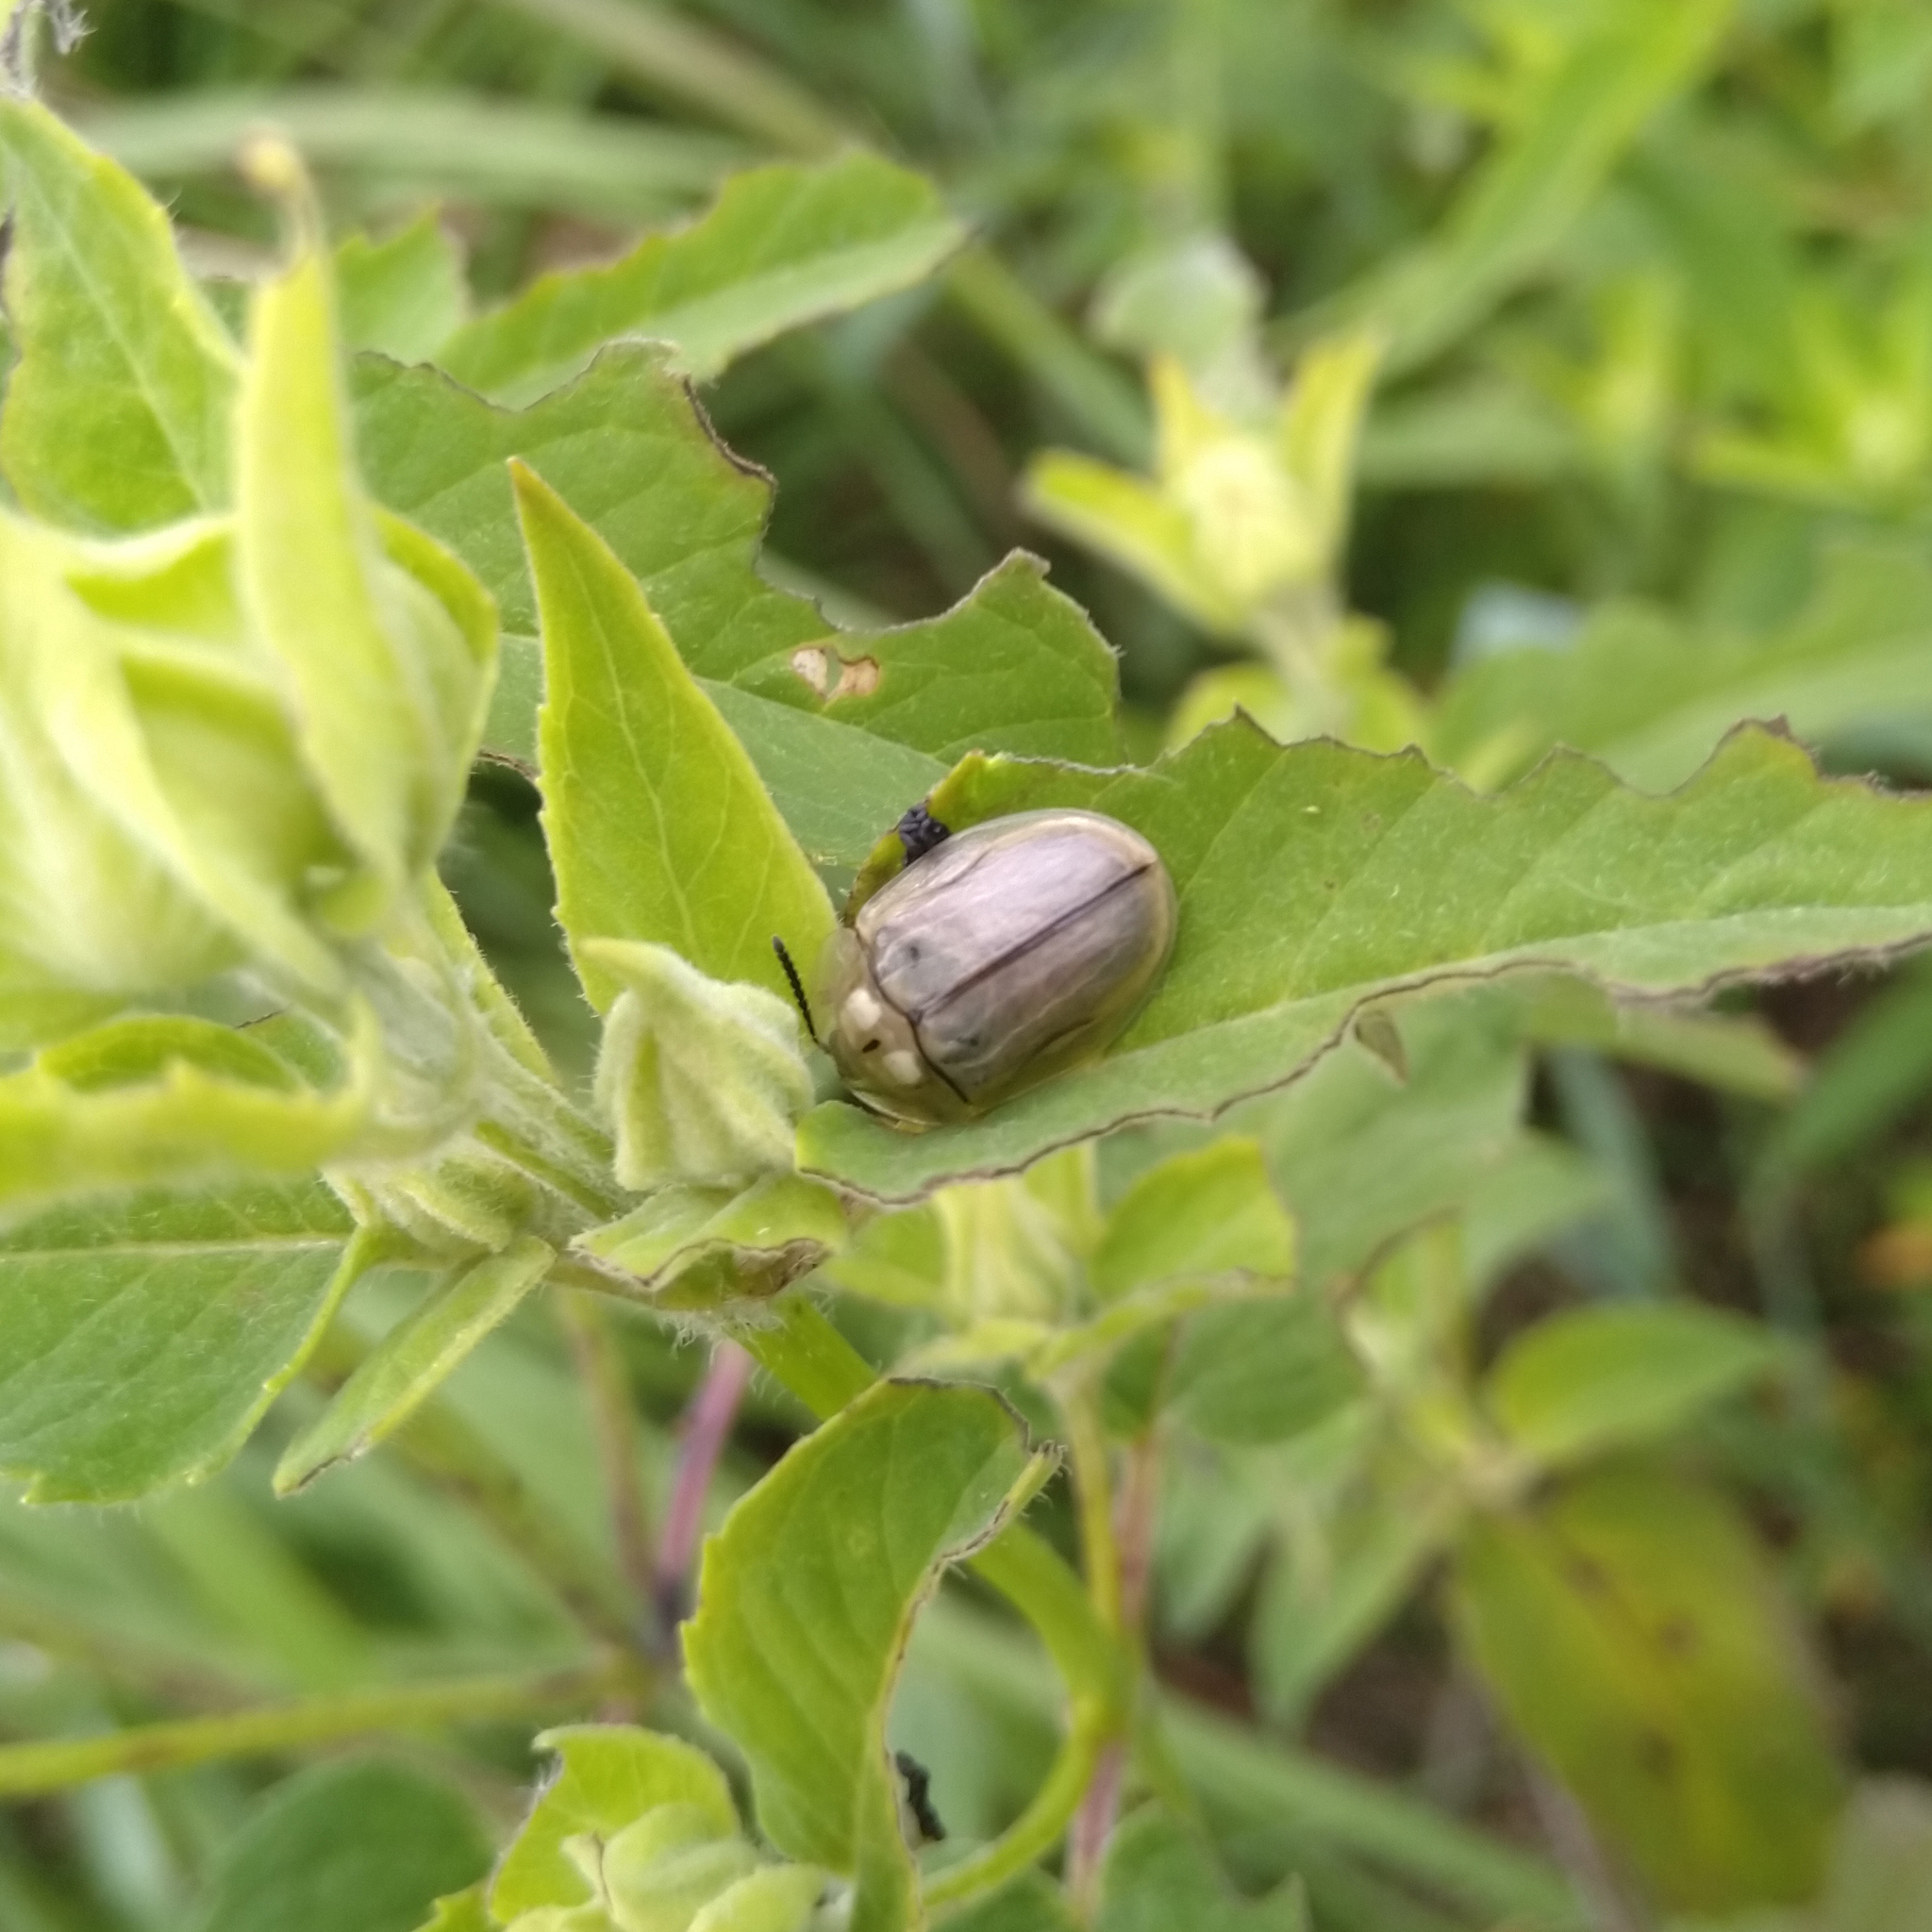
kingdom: Animalia
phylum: Arthropoda
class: Insecta
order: Coleoptera
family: Chrysomelidae
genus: Physonota
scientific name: Physonota unipunctata
